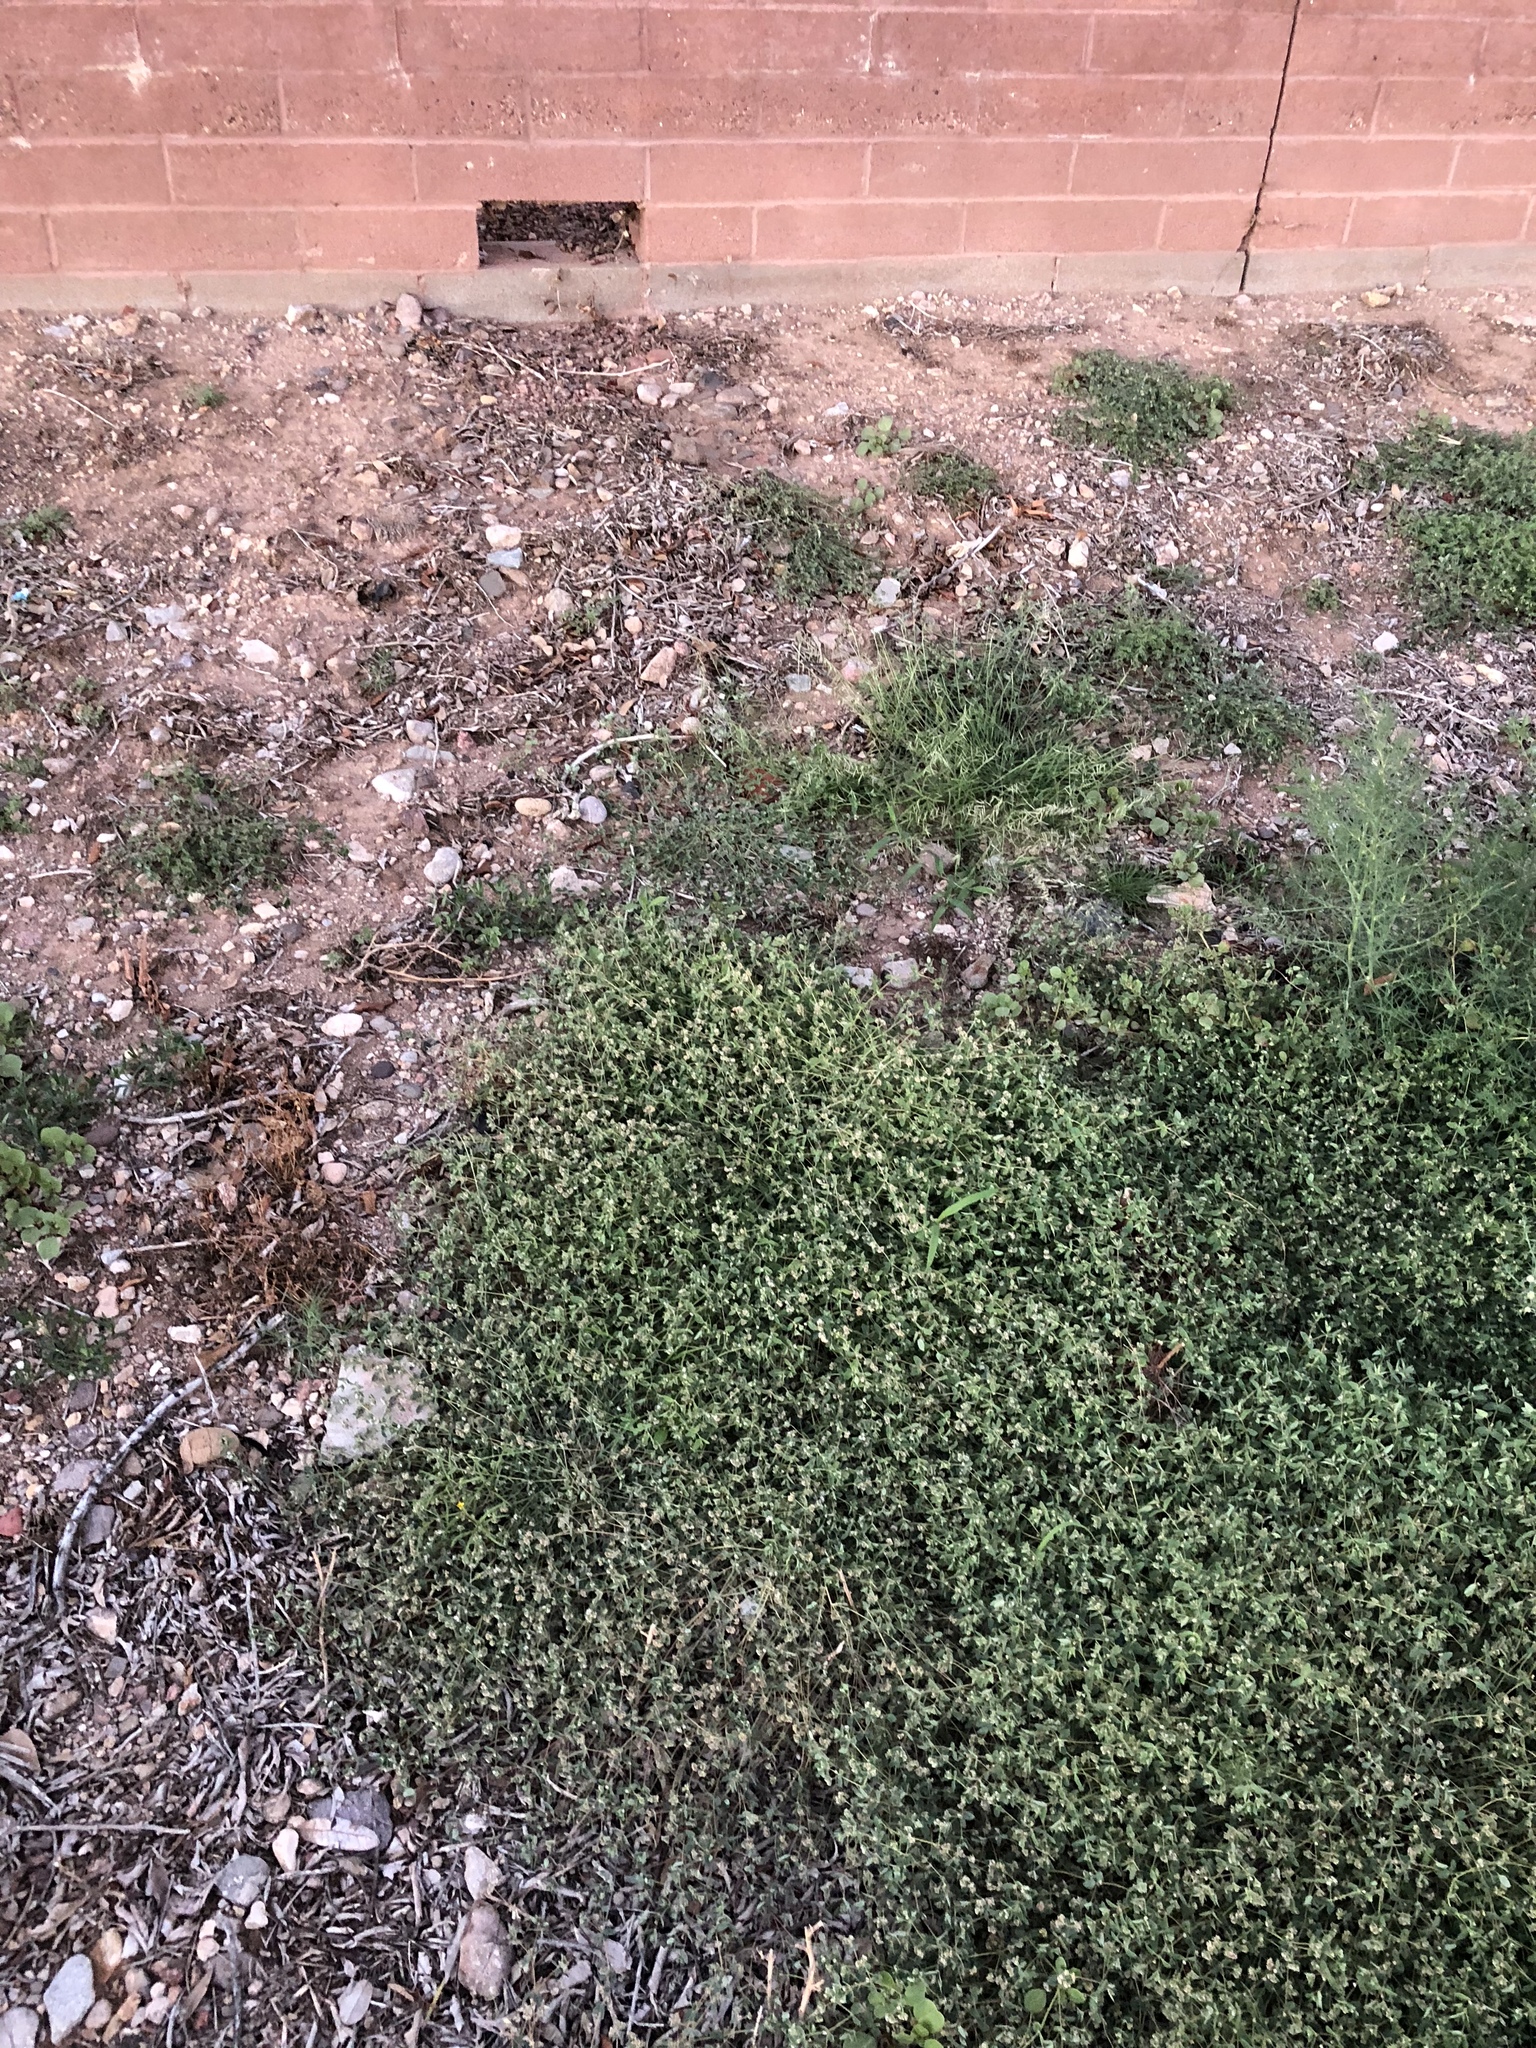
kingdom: Plantae
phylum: Tracheophyta
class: Magnoliopsida
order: Malpighiales
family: Euphorbiaceae
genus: Euphorbia
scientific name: Euphorbia capitellata
